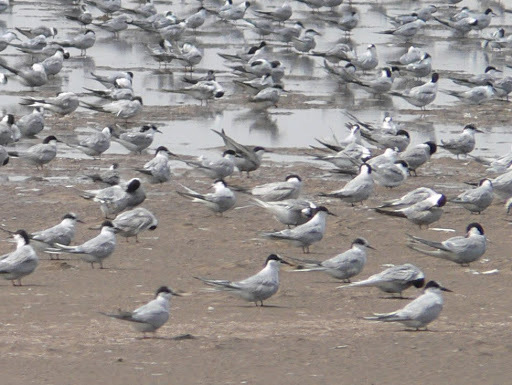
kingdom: Animalia
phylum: Chordata
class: Aves
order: Charadriiformes
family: Laridae
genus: Sterna
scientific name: Sterna paradisaea
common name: Arctic tern
